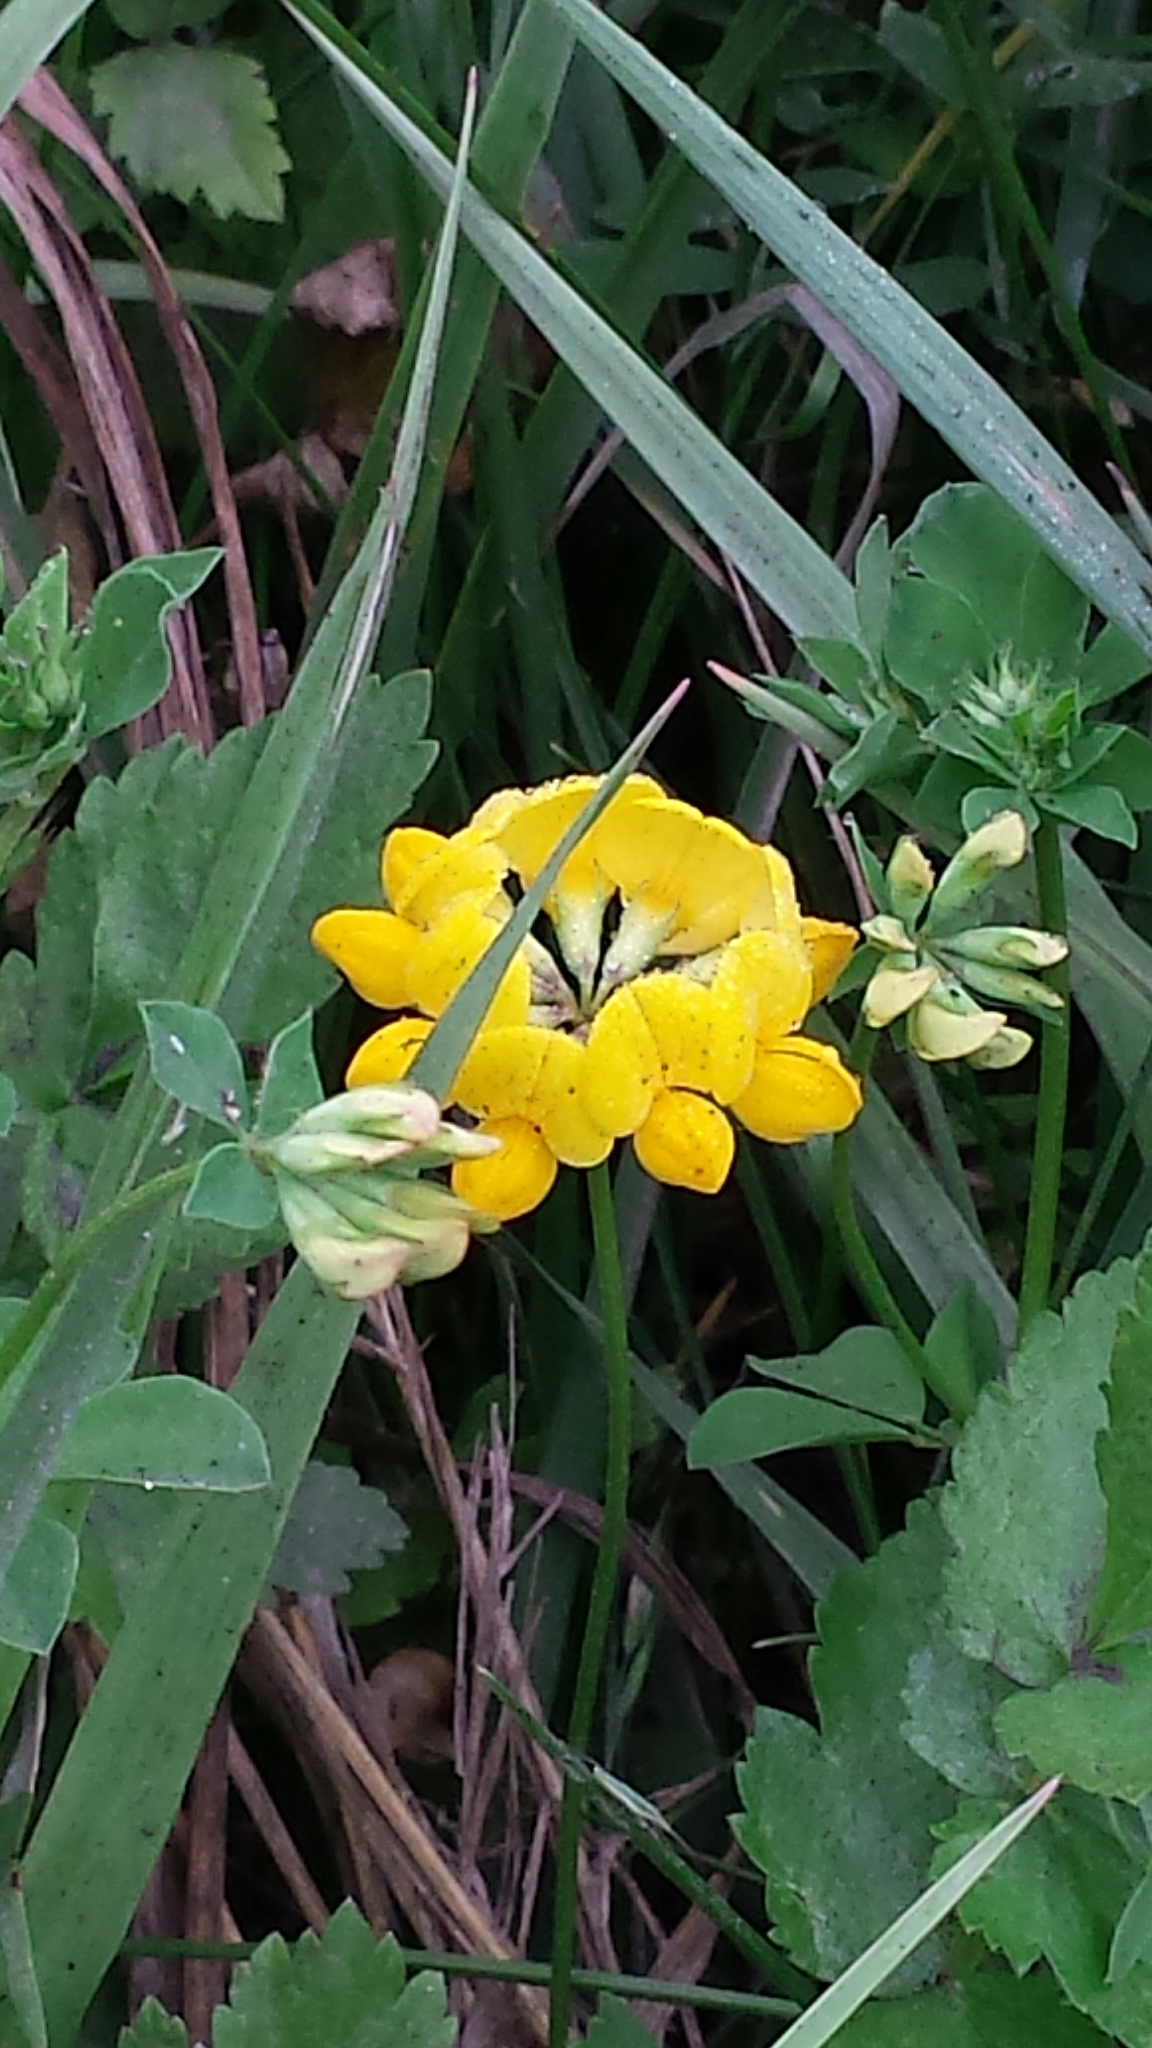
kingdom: Plantae
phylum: Tracheophyta
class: Magnoliopsida
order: Fabales
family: Fabaceae
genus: Lotus
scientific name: Lotus corniculatus
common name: Common bird's-foot-trefoil
